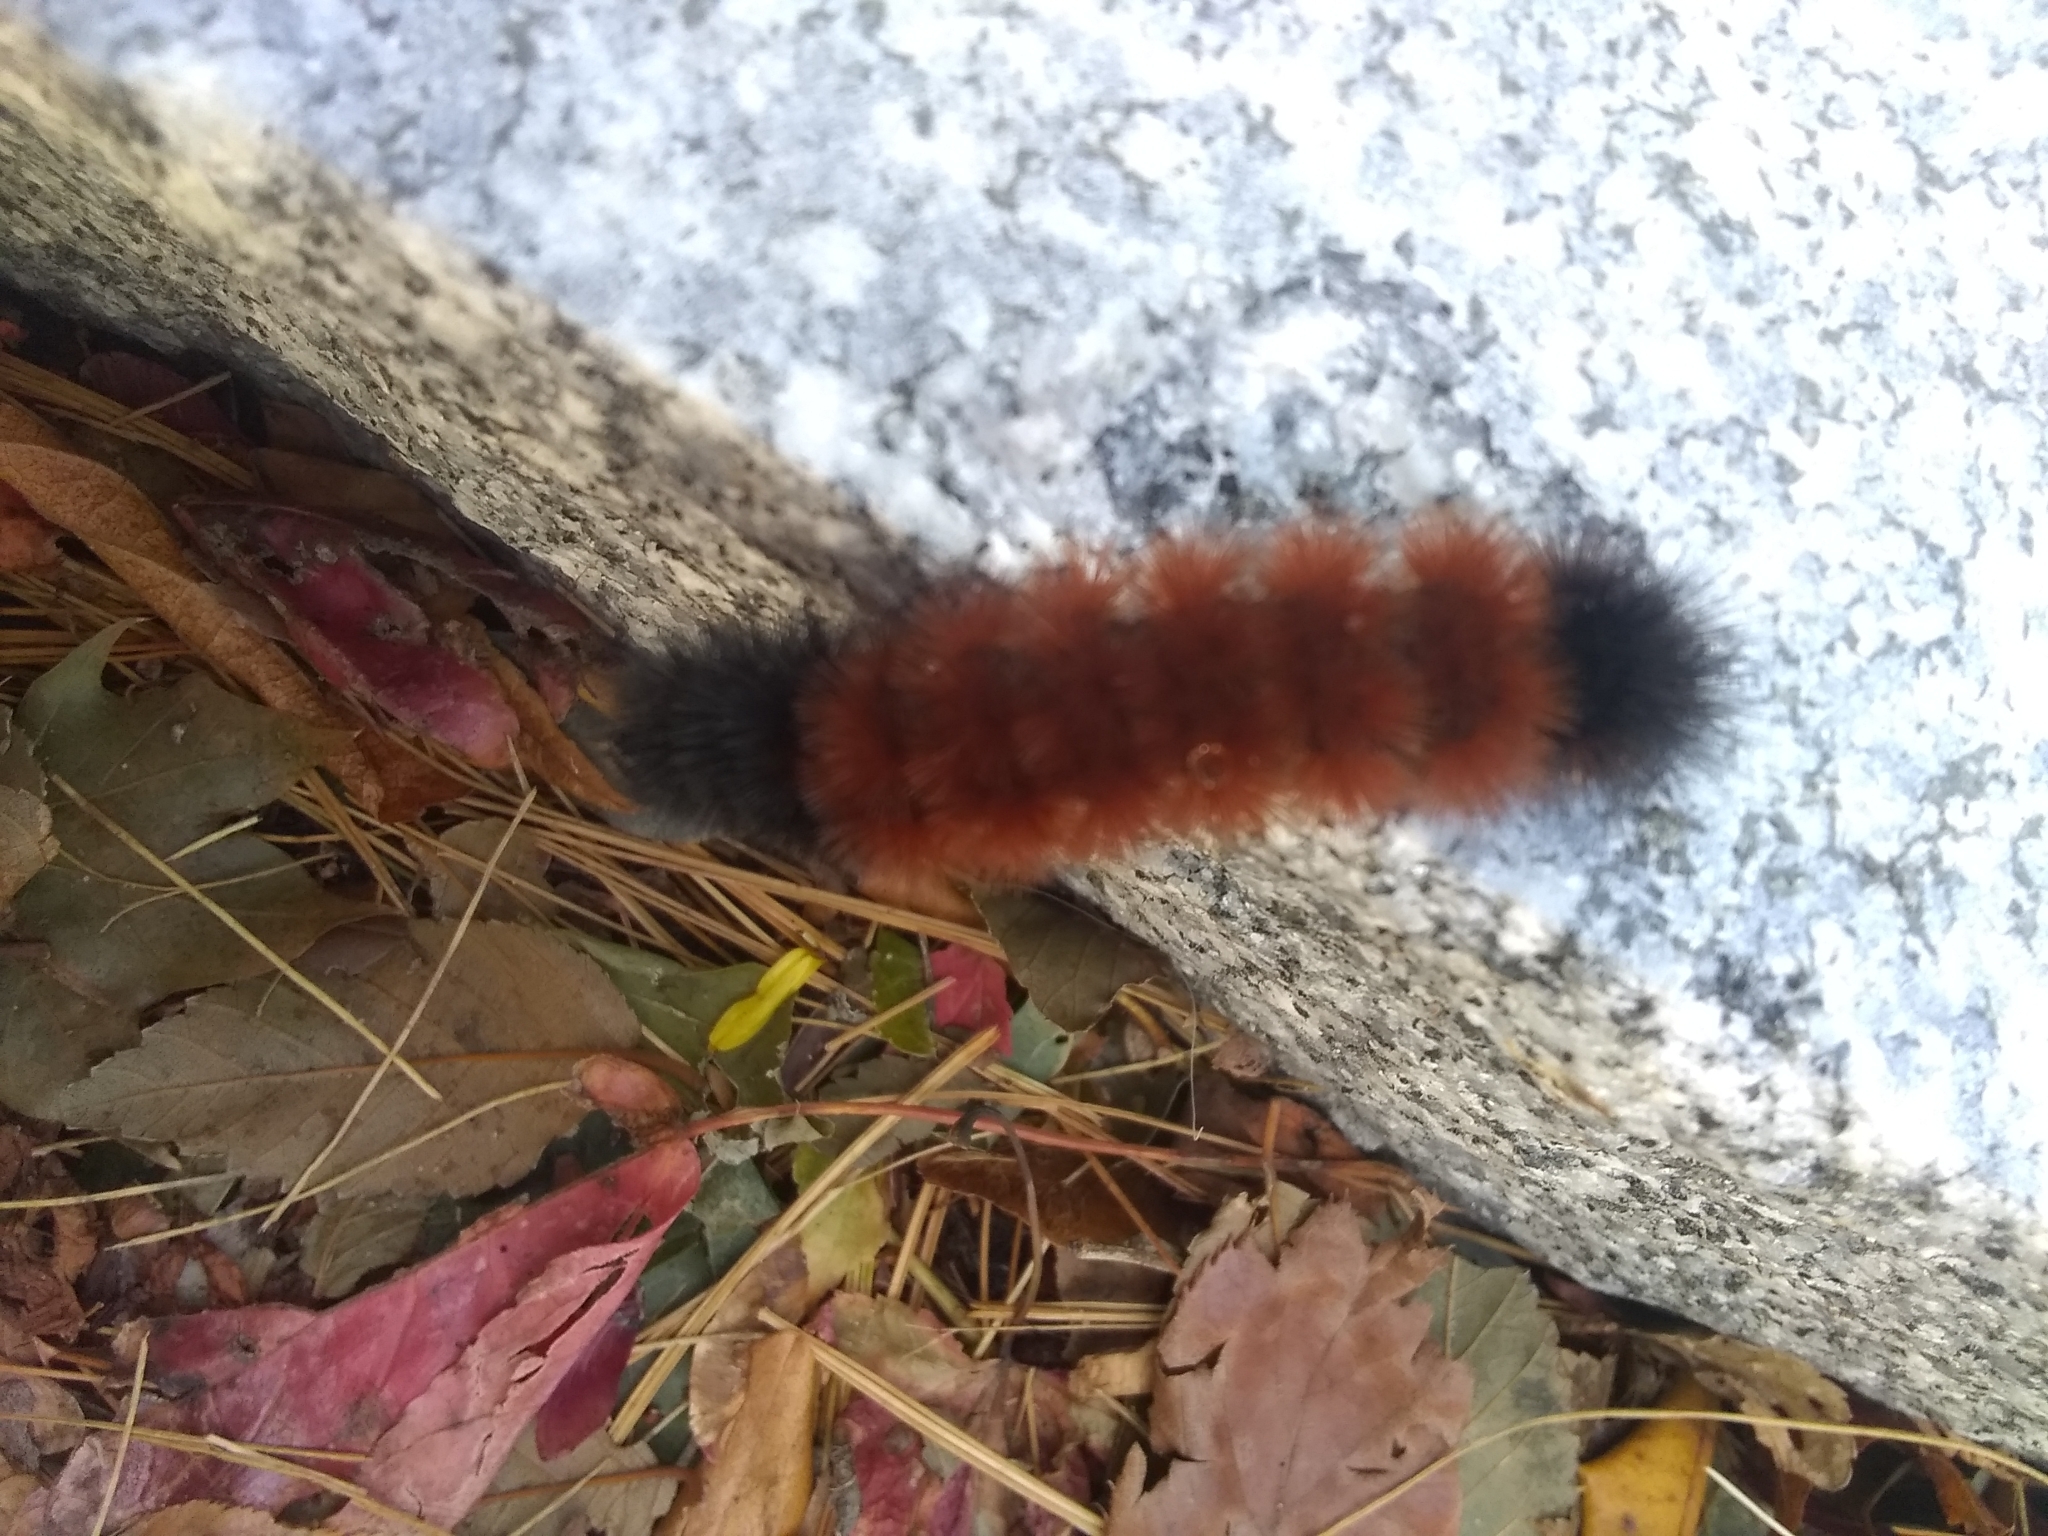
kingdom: Animalia
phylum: Arthropoda
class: Insecta
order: Lepidoptera
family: Erebidae
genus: Pyrrharctia
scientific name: Pyrrharctia isabella
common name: Isabella tiger moth
